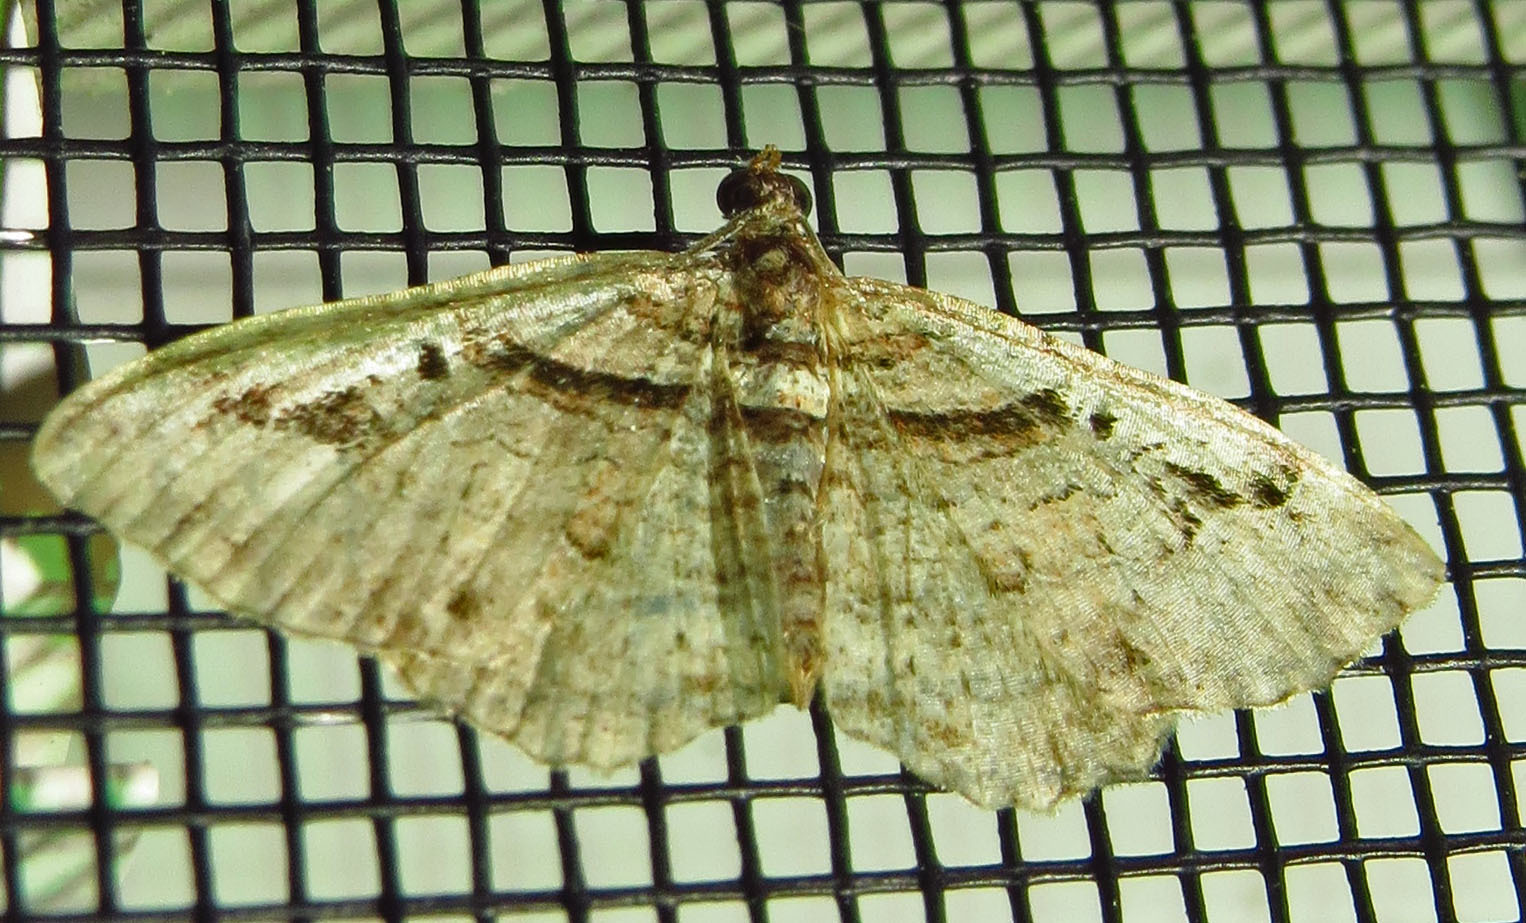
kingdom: Animalia
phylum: Arthropoda
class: Insecta
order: Lepidoptera
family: Geometridae
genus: Costaconvexa
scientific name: Costaconvexa centrostrigaria
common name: Bent-line carpet
